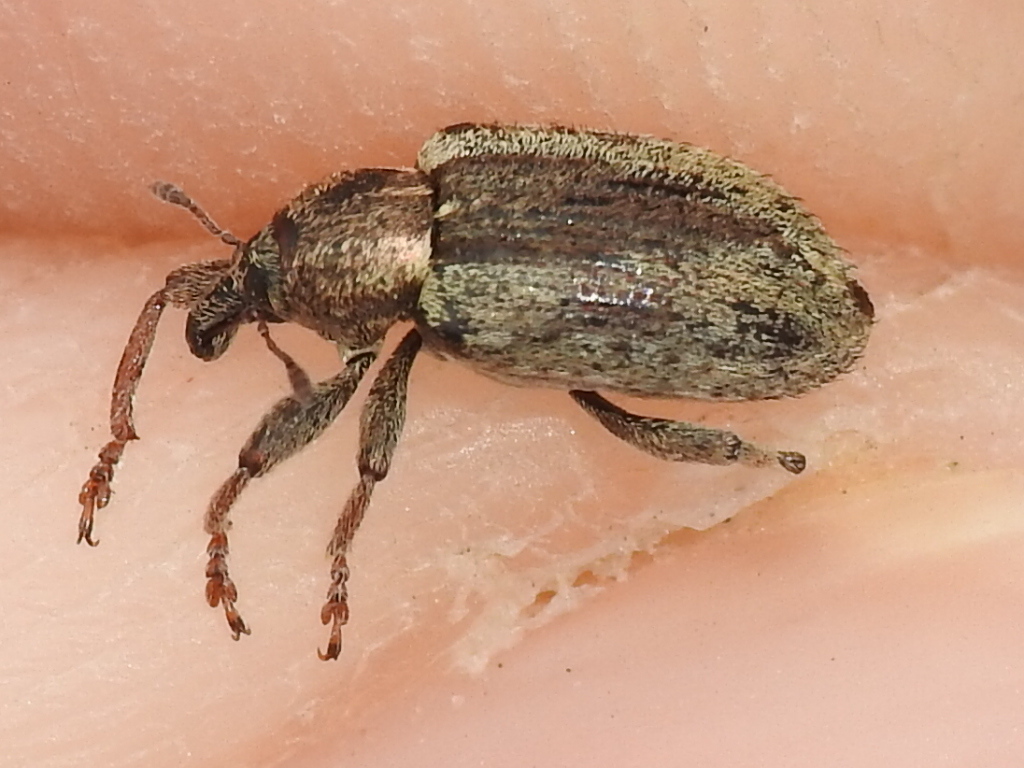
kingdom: Animalia
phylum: Arthropoda
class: Insecta
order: Coleoptera
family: Curculionidae
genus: Hypera
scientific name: Hypera postica
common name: Weevil
